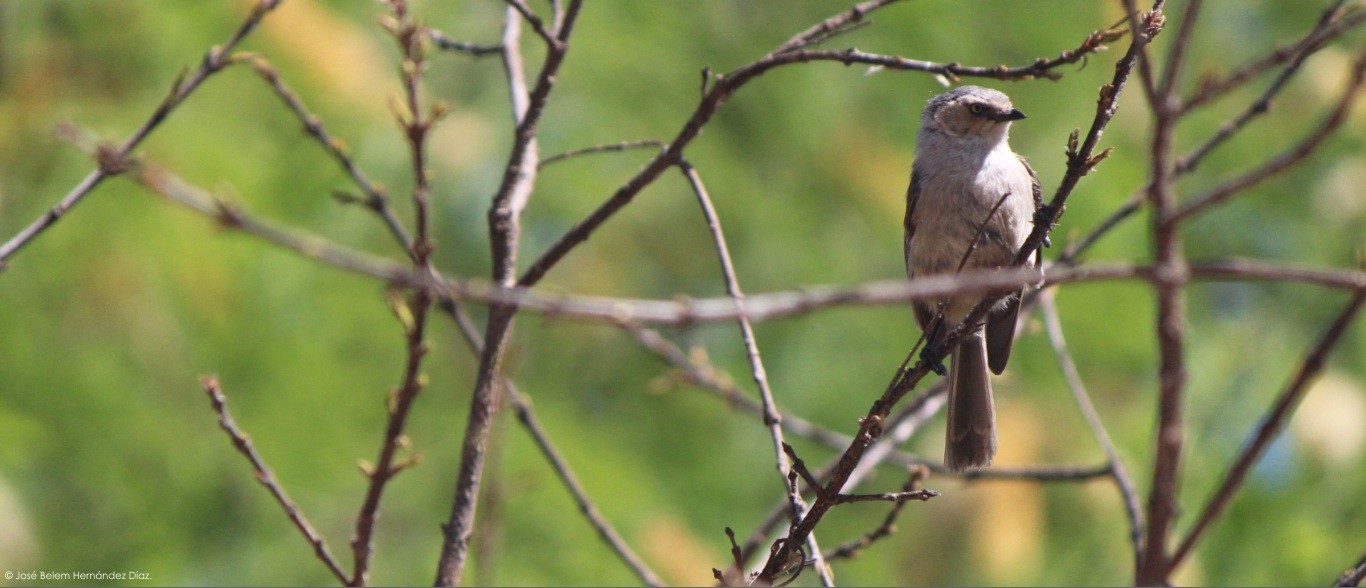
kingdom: Animalia
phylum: Chordata
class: Aves
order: Passeriformes
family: Aegithalidae
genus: Psaltriparus
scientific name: Psaltriparus minimus
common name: American bushtit
